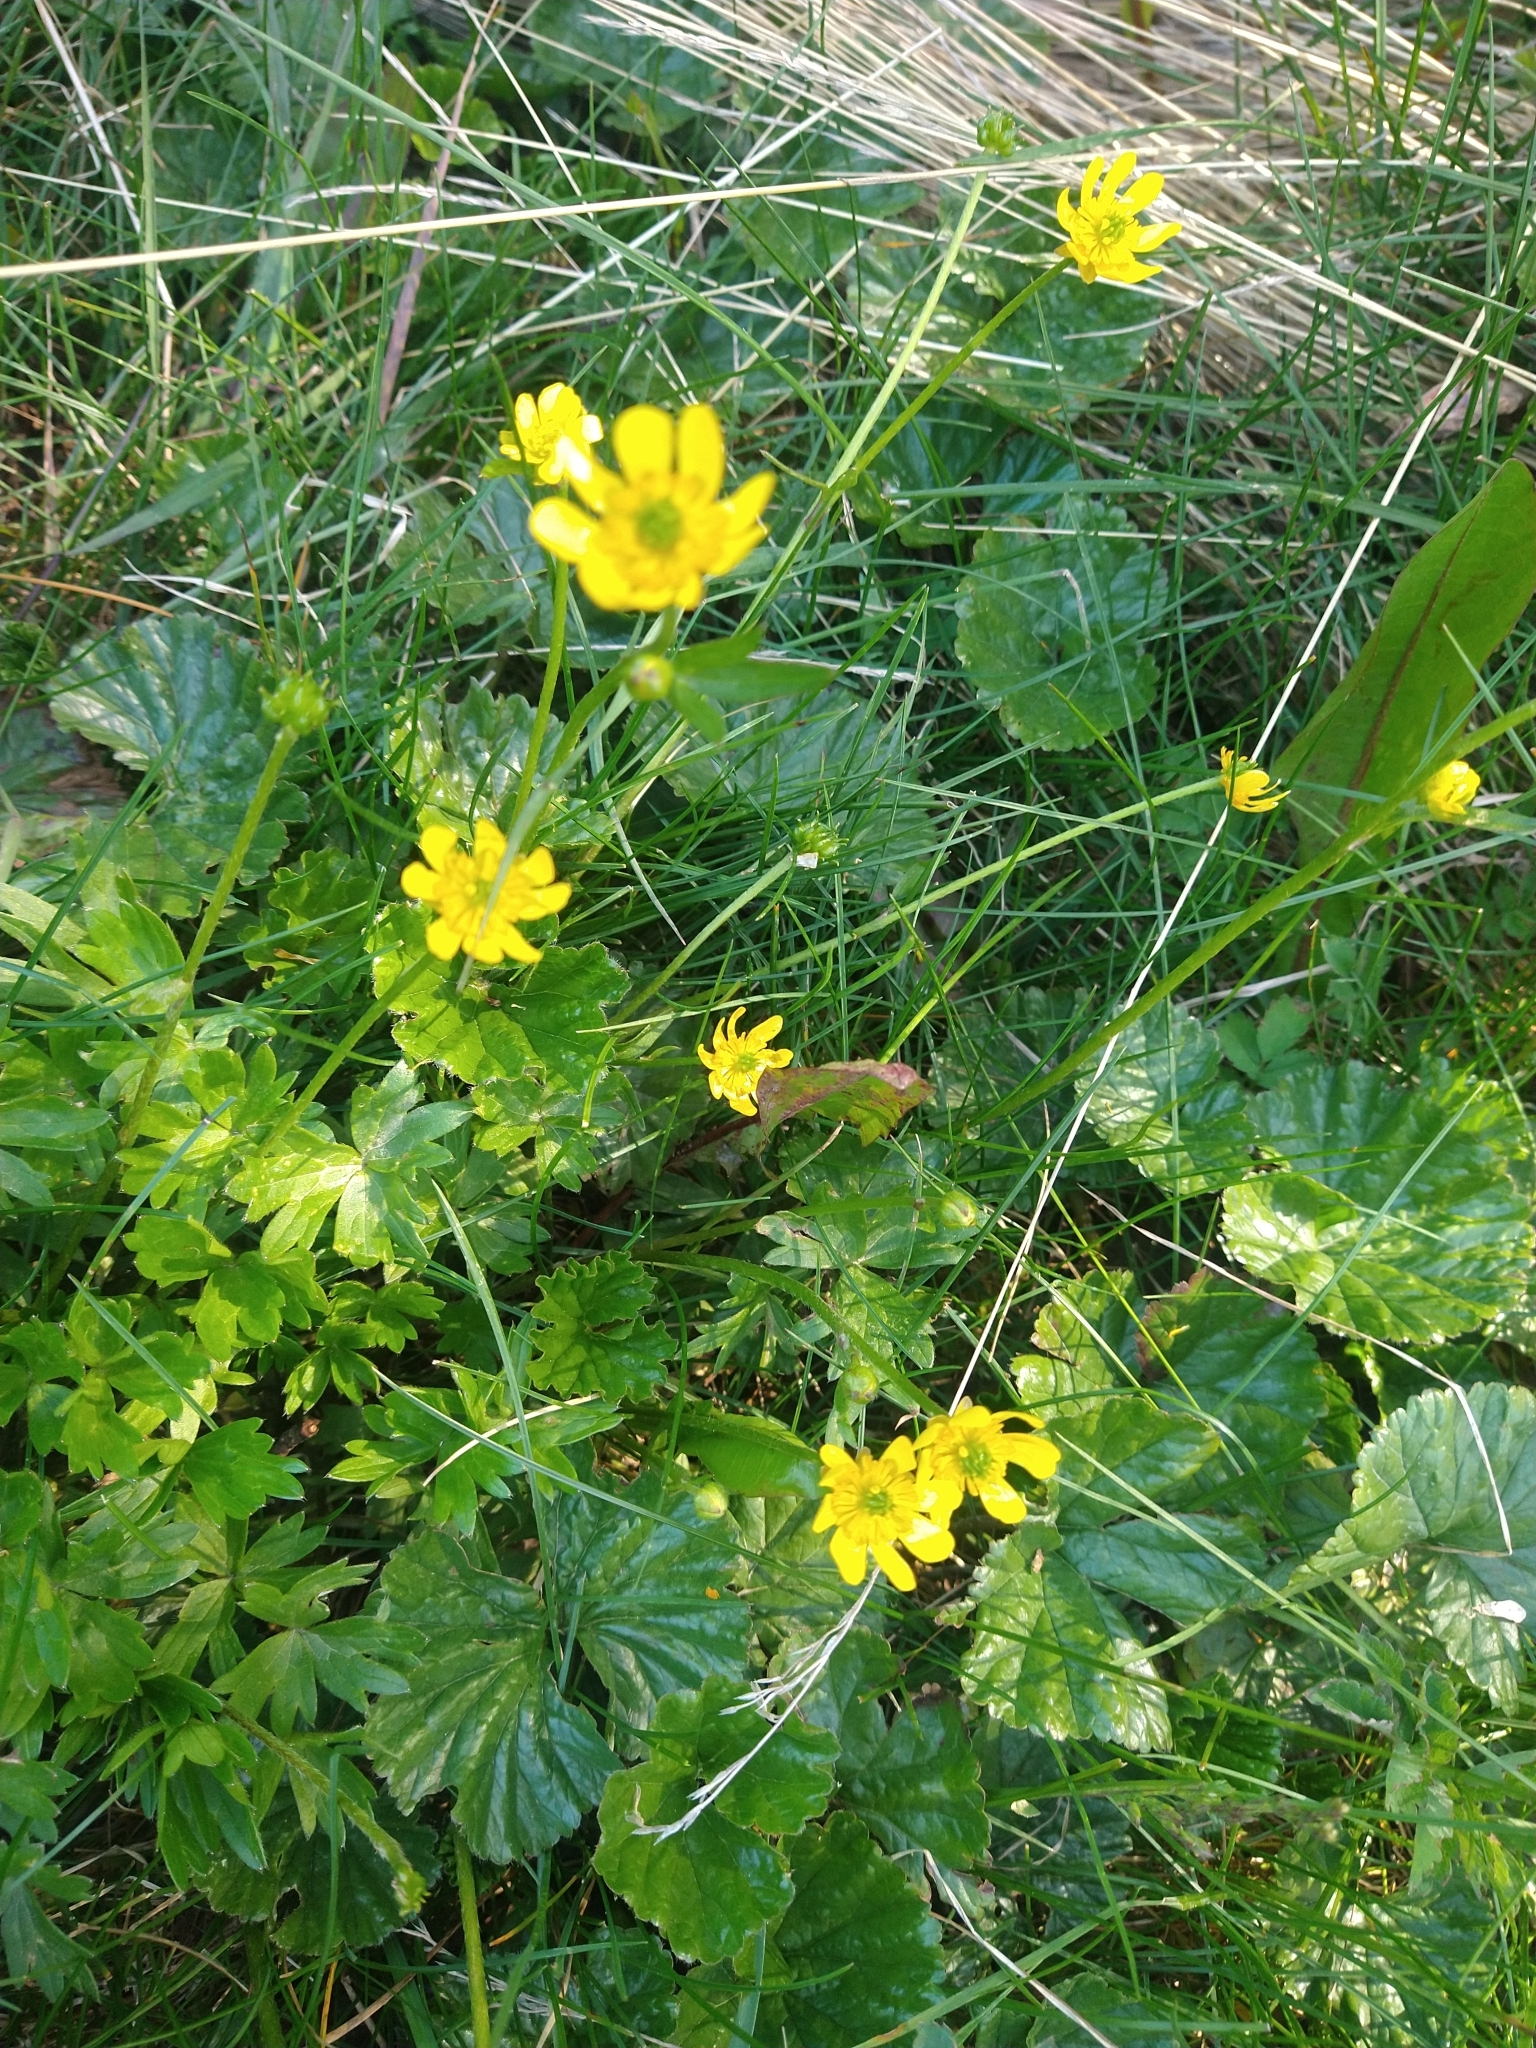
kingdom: Plantae
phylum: Tracheophyta
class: Magnoliopsida
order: Ranunculales
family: Ranunculaceae
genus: Ranunculus
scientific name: Ranunculus peduncularis
